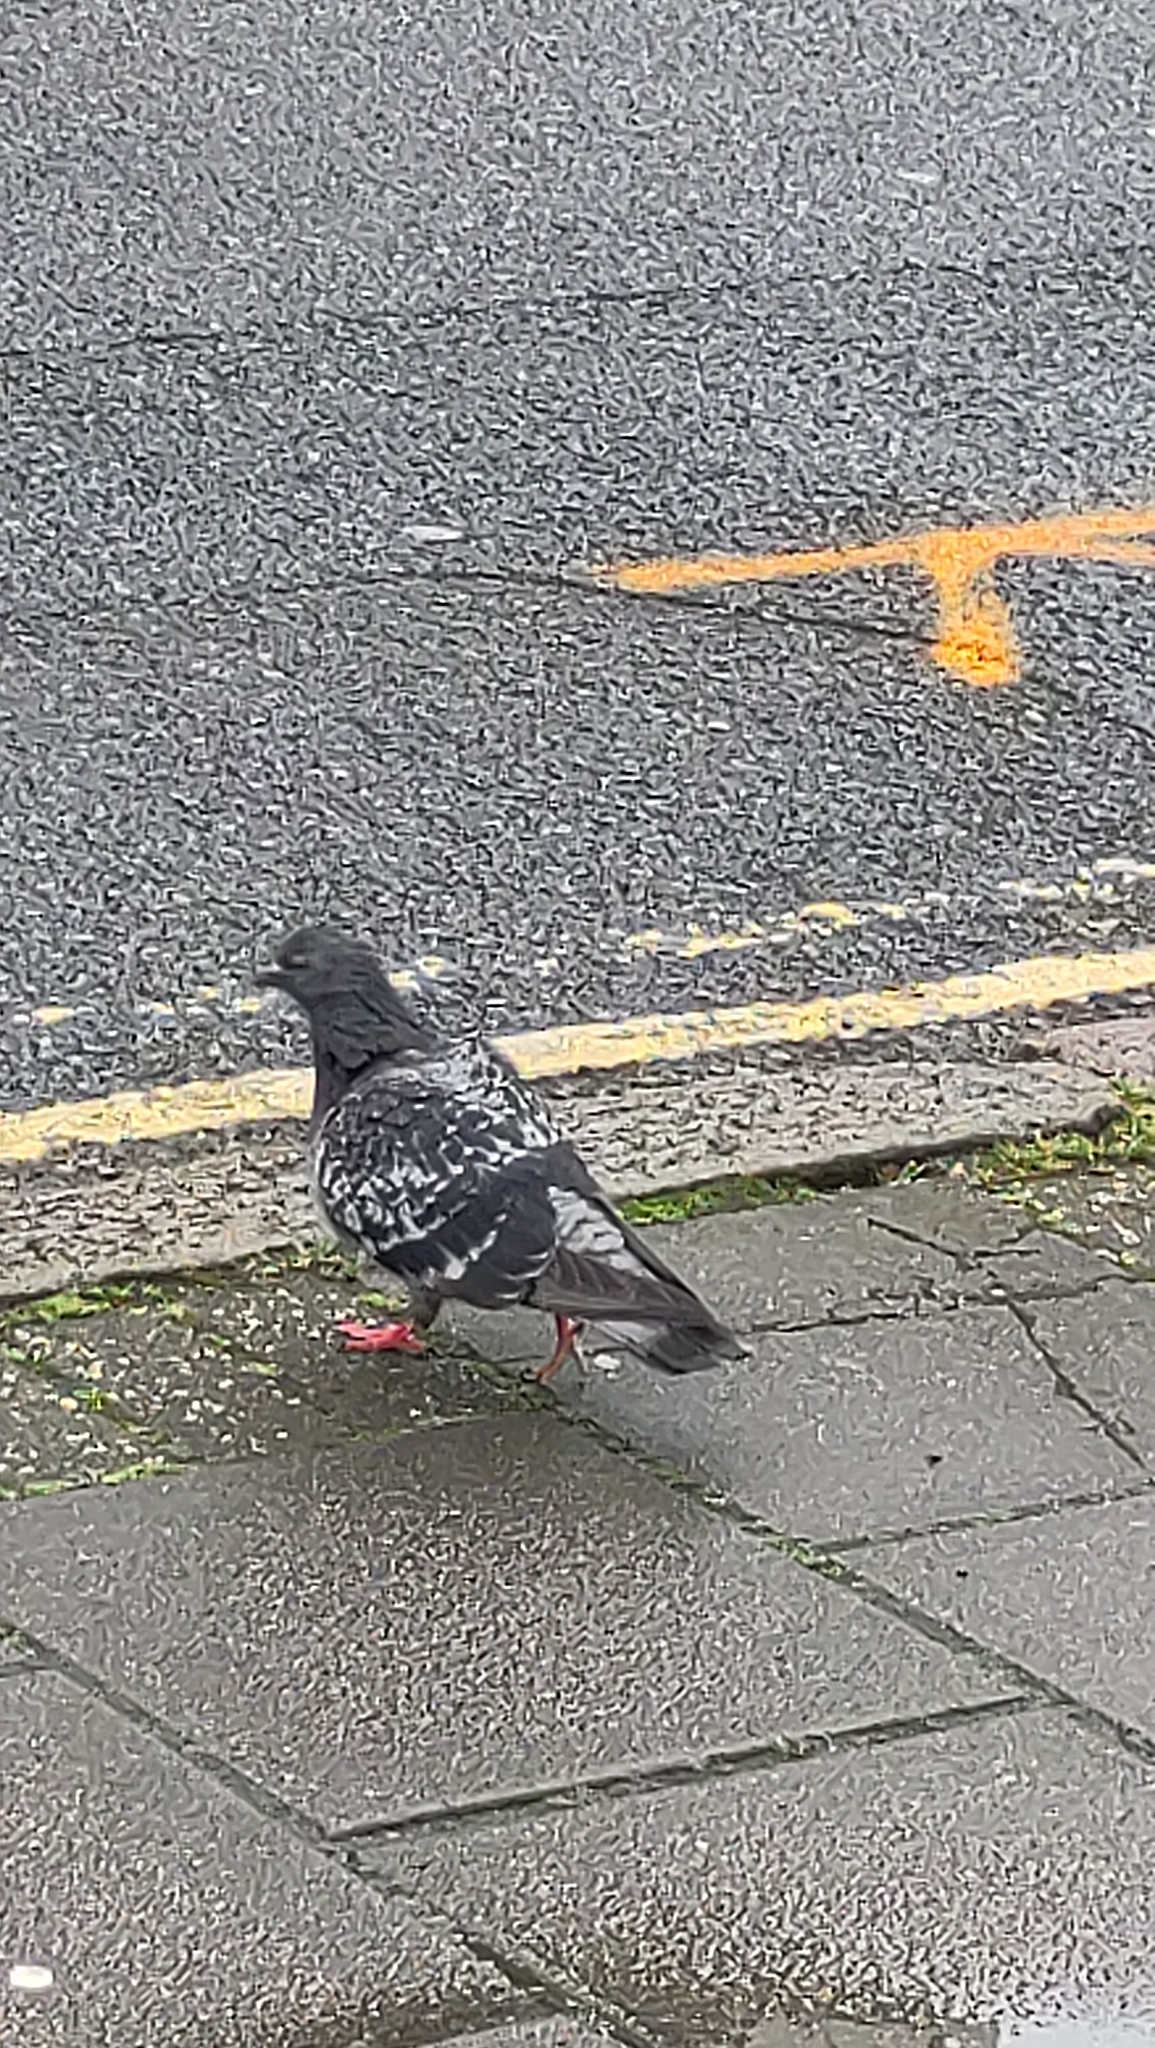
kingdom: Animalia
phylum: Chordata
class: Aves
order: Columbiformes
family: Columbidae
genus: Columba
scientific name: Columba livia
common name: Rock pigeon
